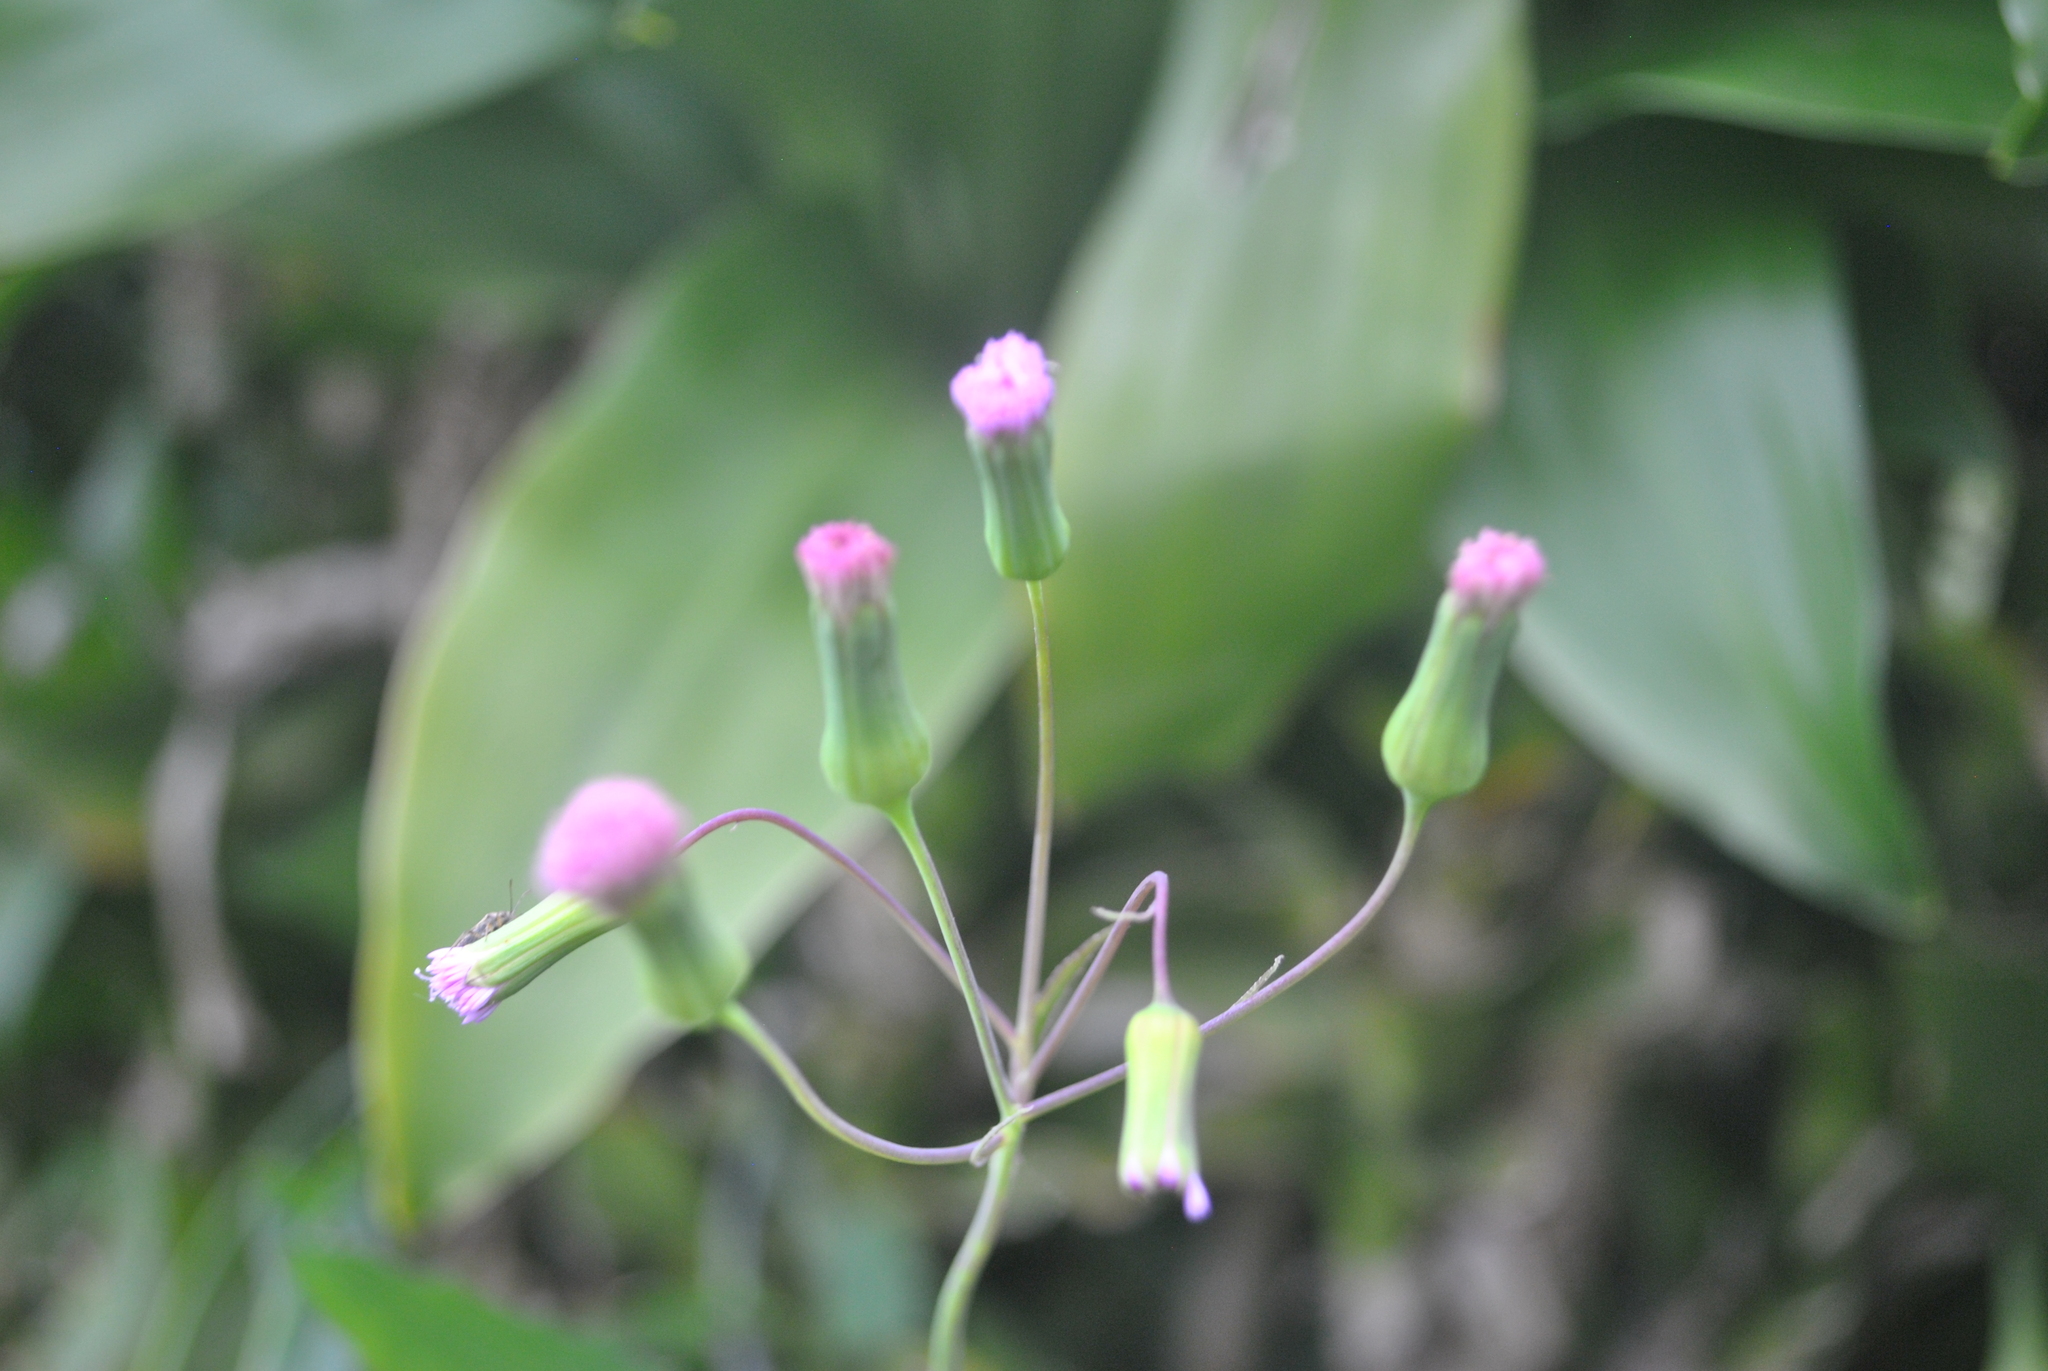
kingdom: Plantae
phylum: Tracheophyta
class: Magnoliopsida
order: Asterales
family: Asteraceae
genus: Emilia
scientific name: Emilia sonchifolia
